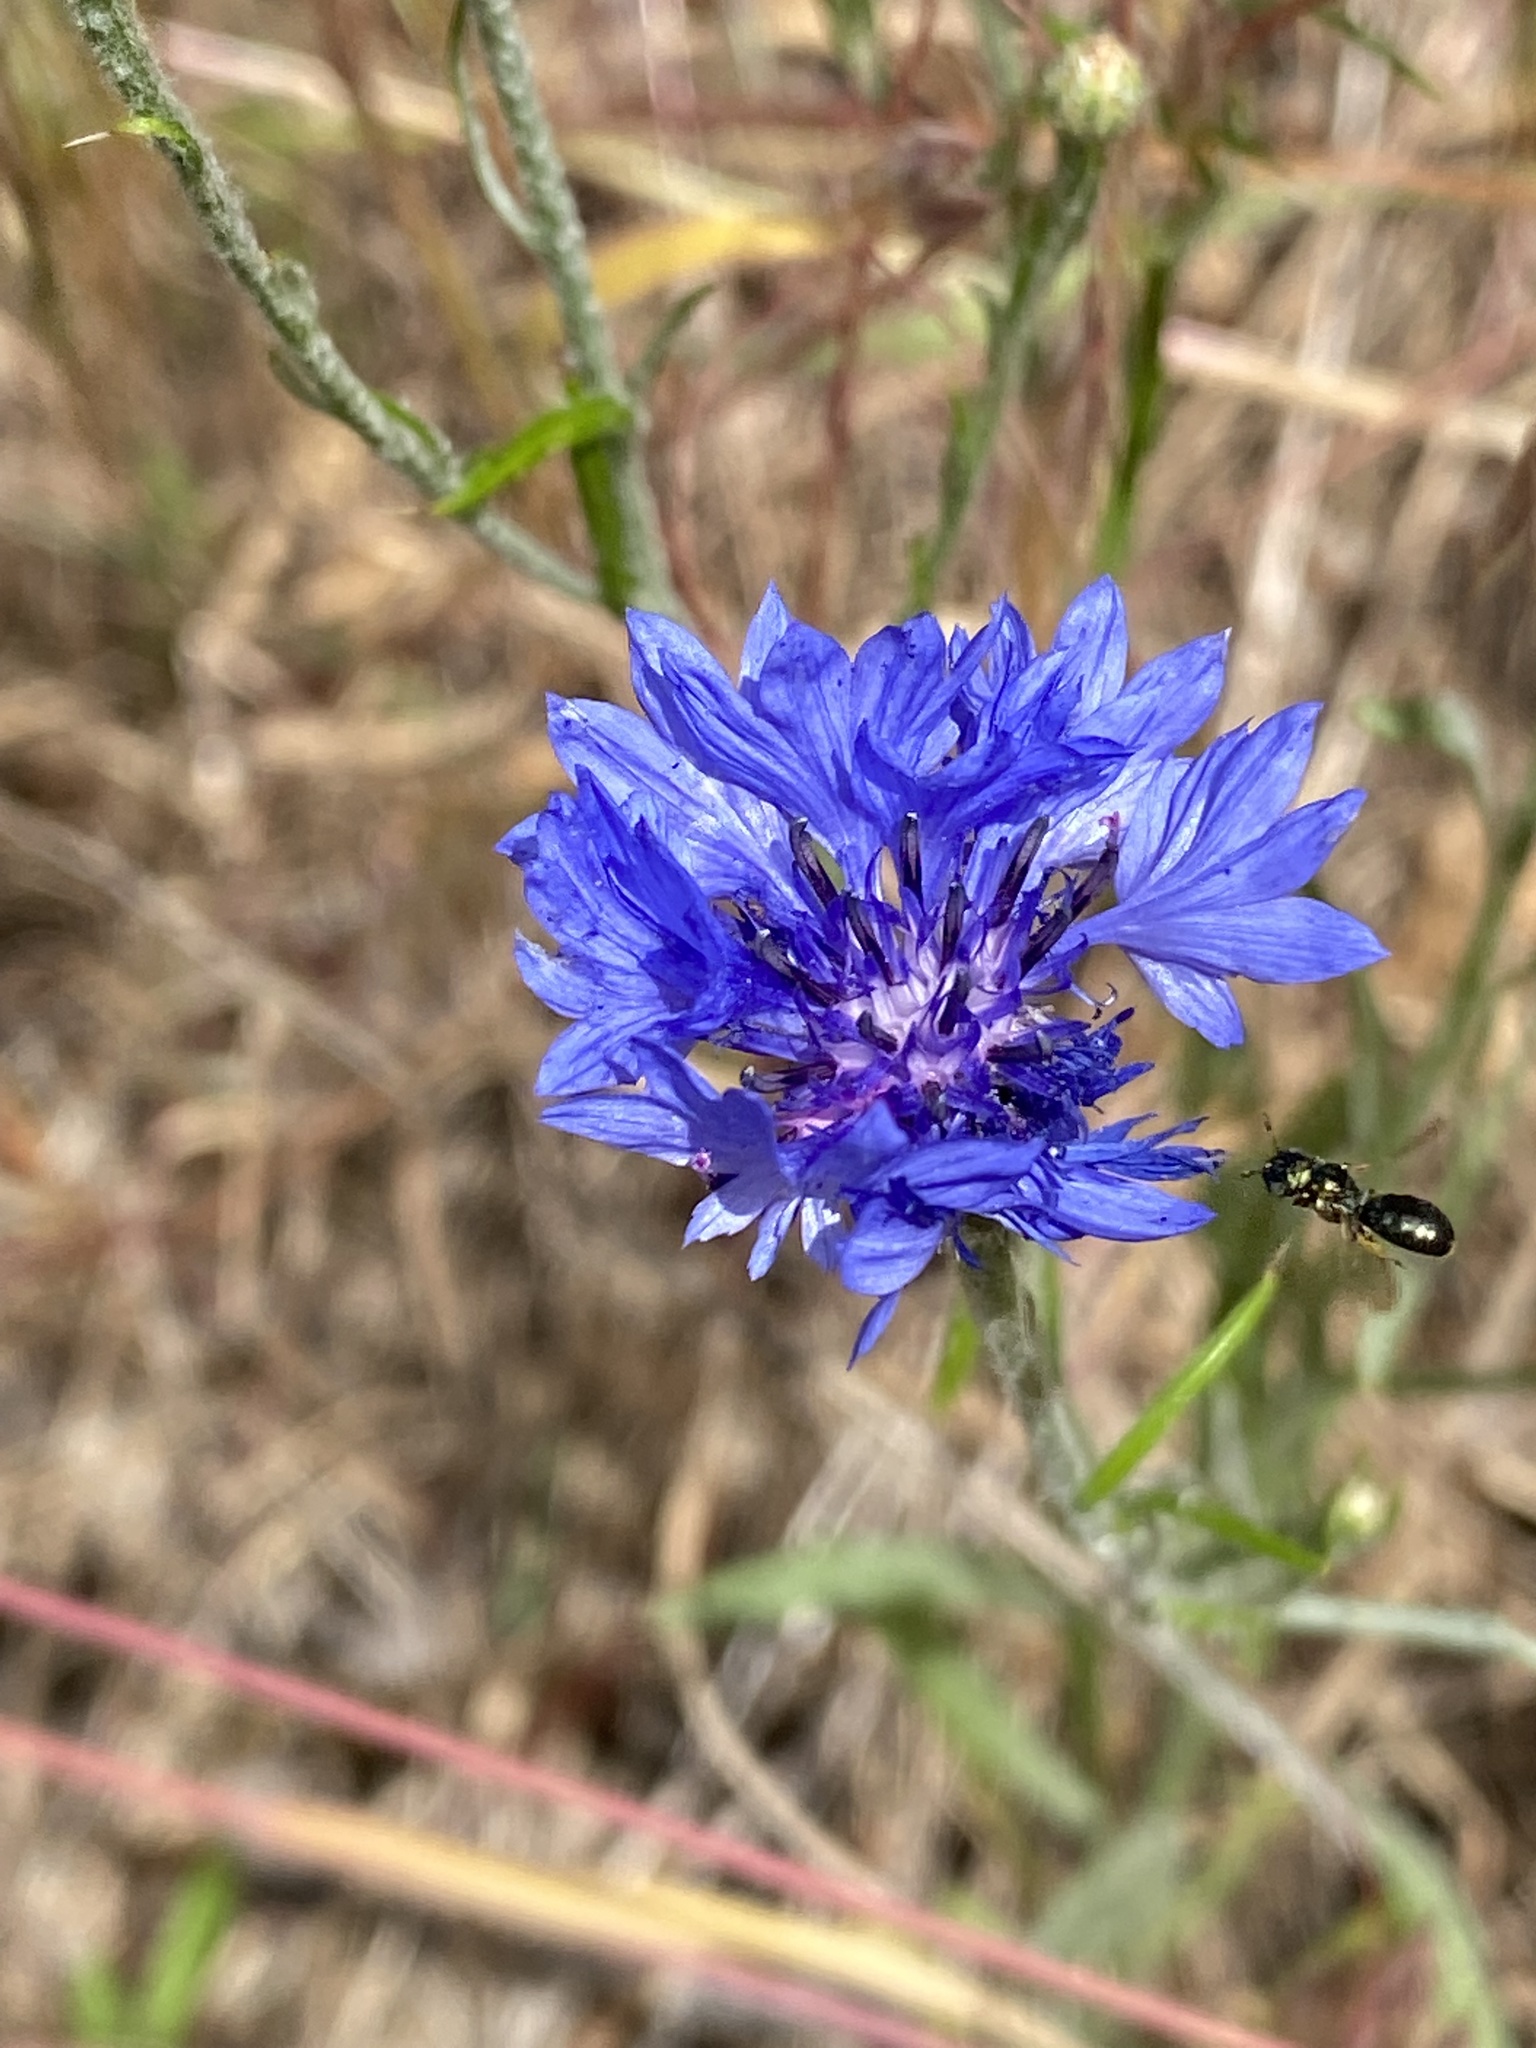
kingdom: Plantae
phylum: Tracheophyta
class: Magnoliopsida
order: Asterales
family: Asteraceae
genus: Centaurea
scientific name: Centaurea cyanus
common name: Cornflower
